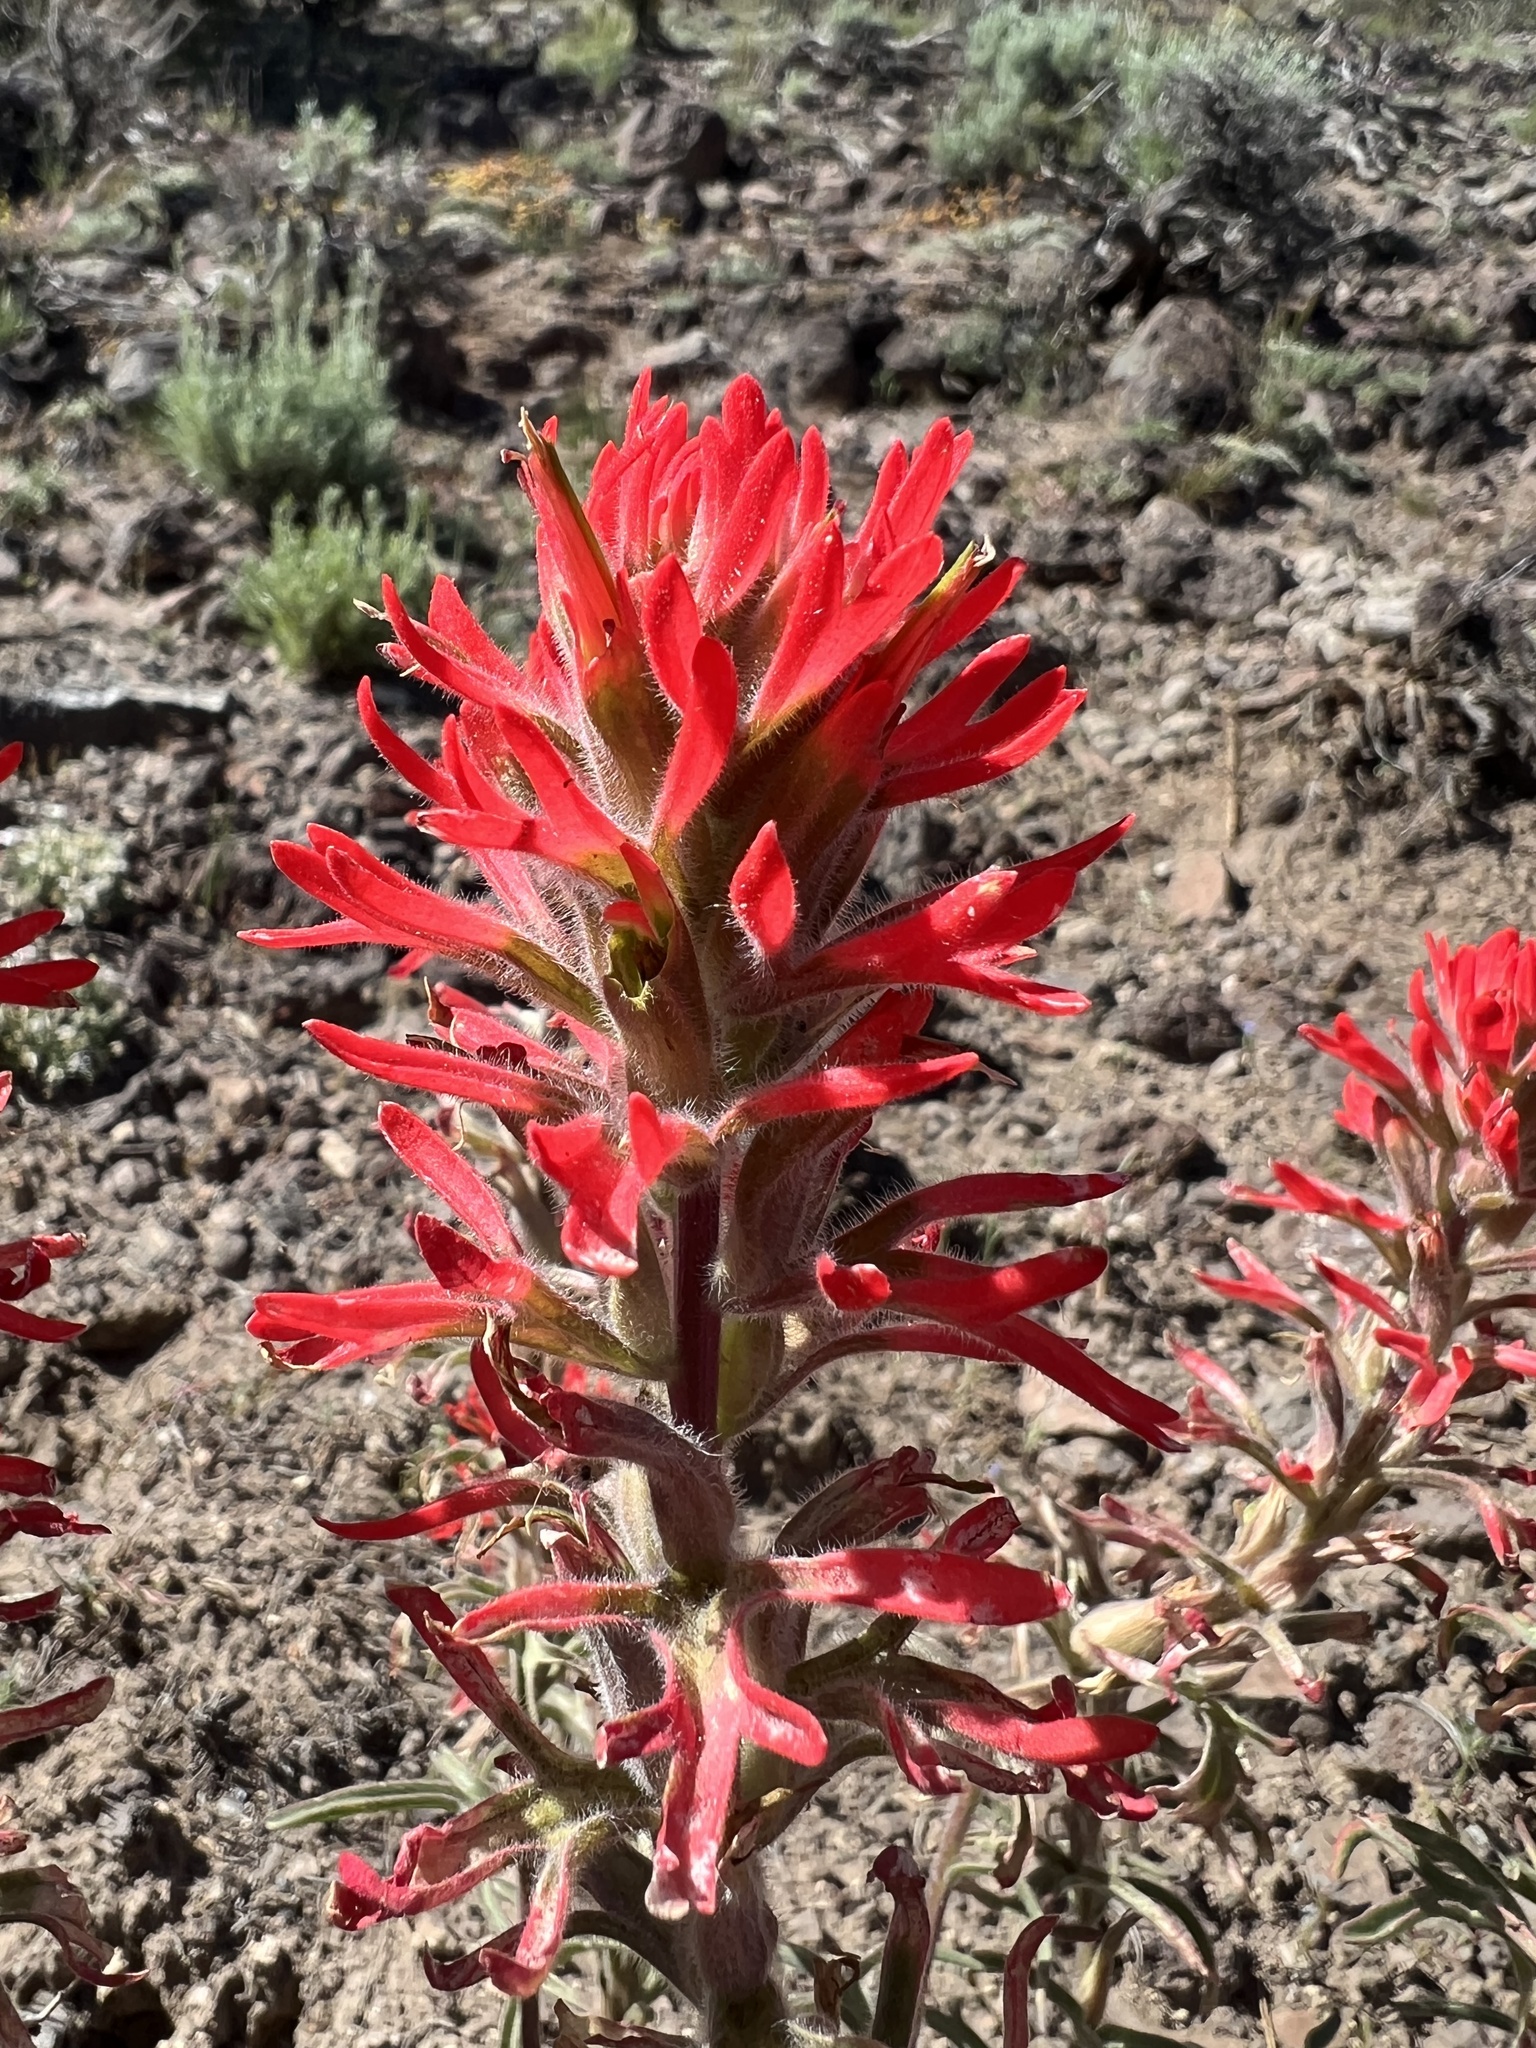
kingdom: Plantae
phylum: Tracheophyta
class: Magnoliopsida
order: Lamiales
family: Orobanchaceae
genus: Castilleja
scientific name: Castilleja chromosa
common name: Desert paintbrush
